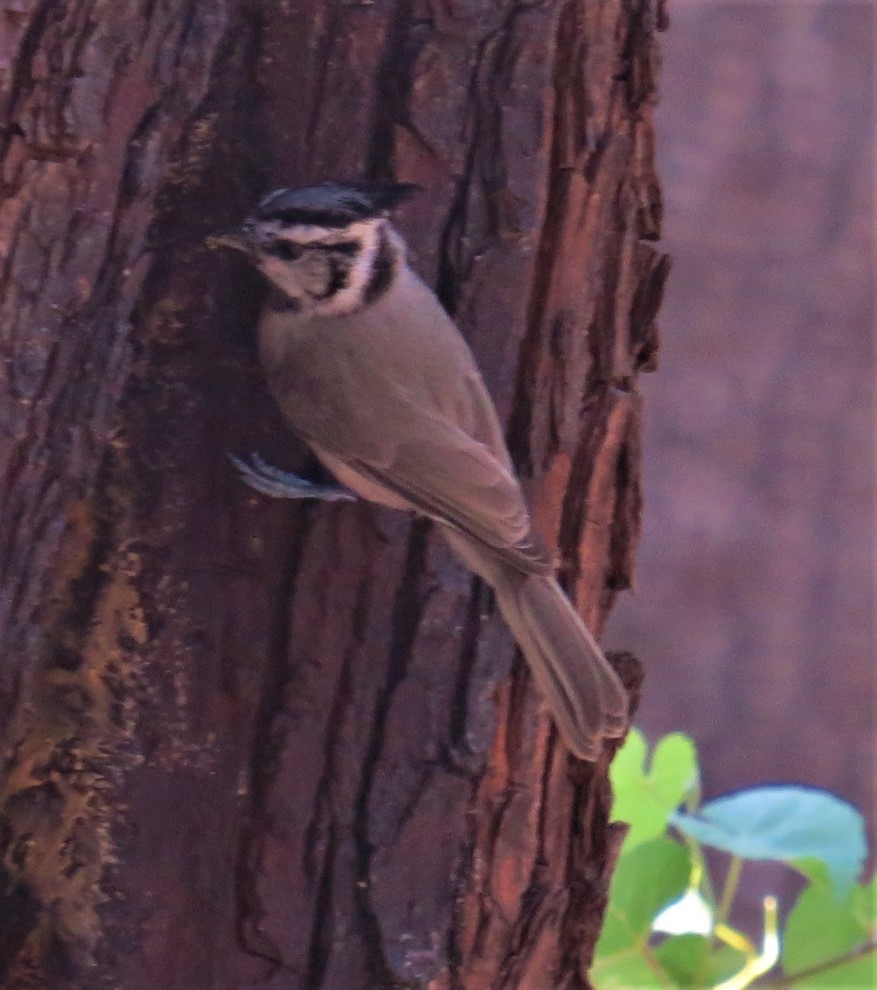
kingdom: Animalia
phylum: Chordata
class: Aves
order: Passeriformes
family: Paridae
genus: Baeolophus
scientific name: Baeolophus wollweberi
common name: Bridled titmouse
